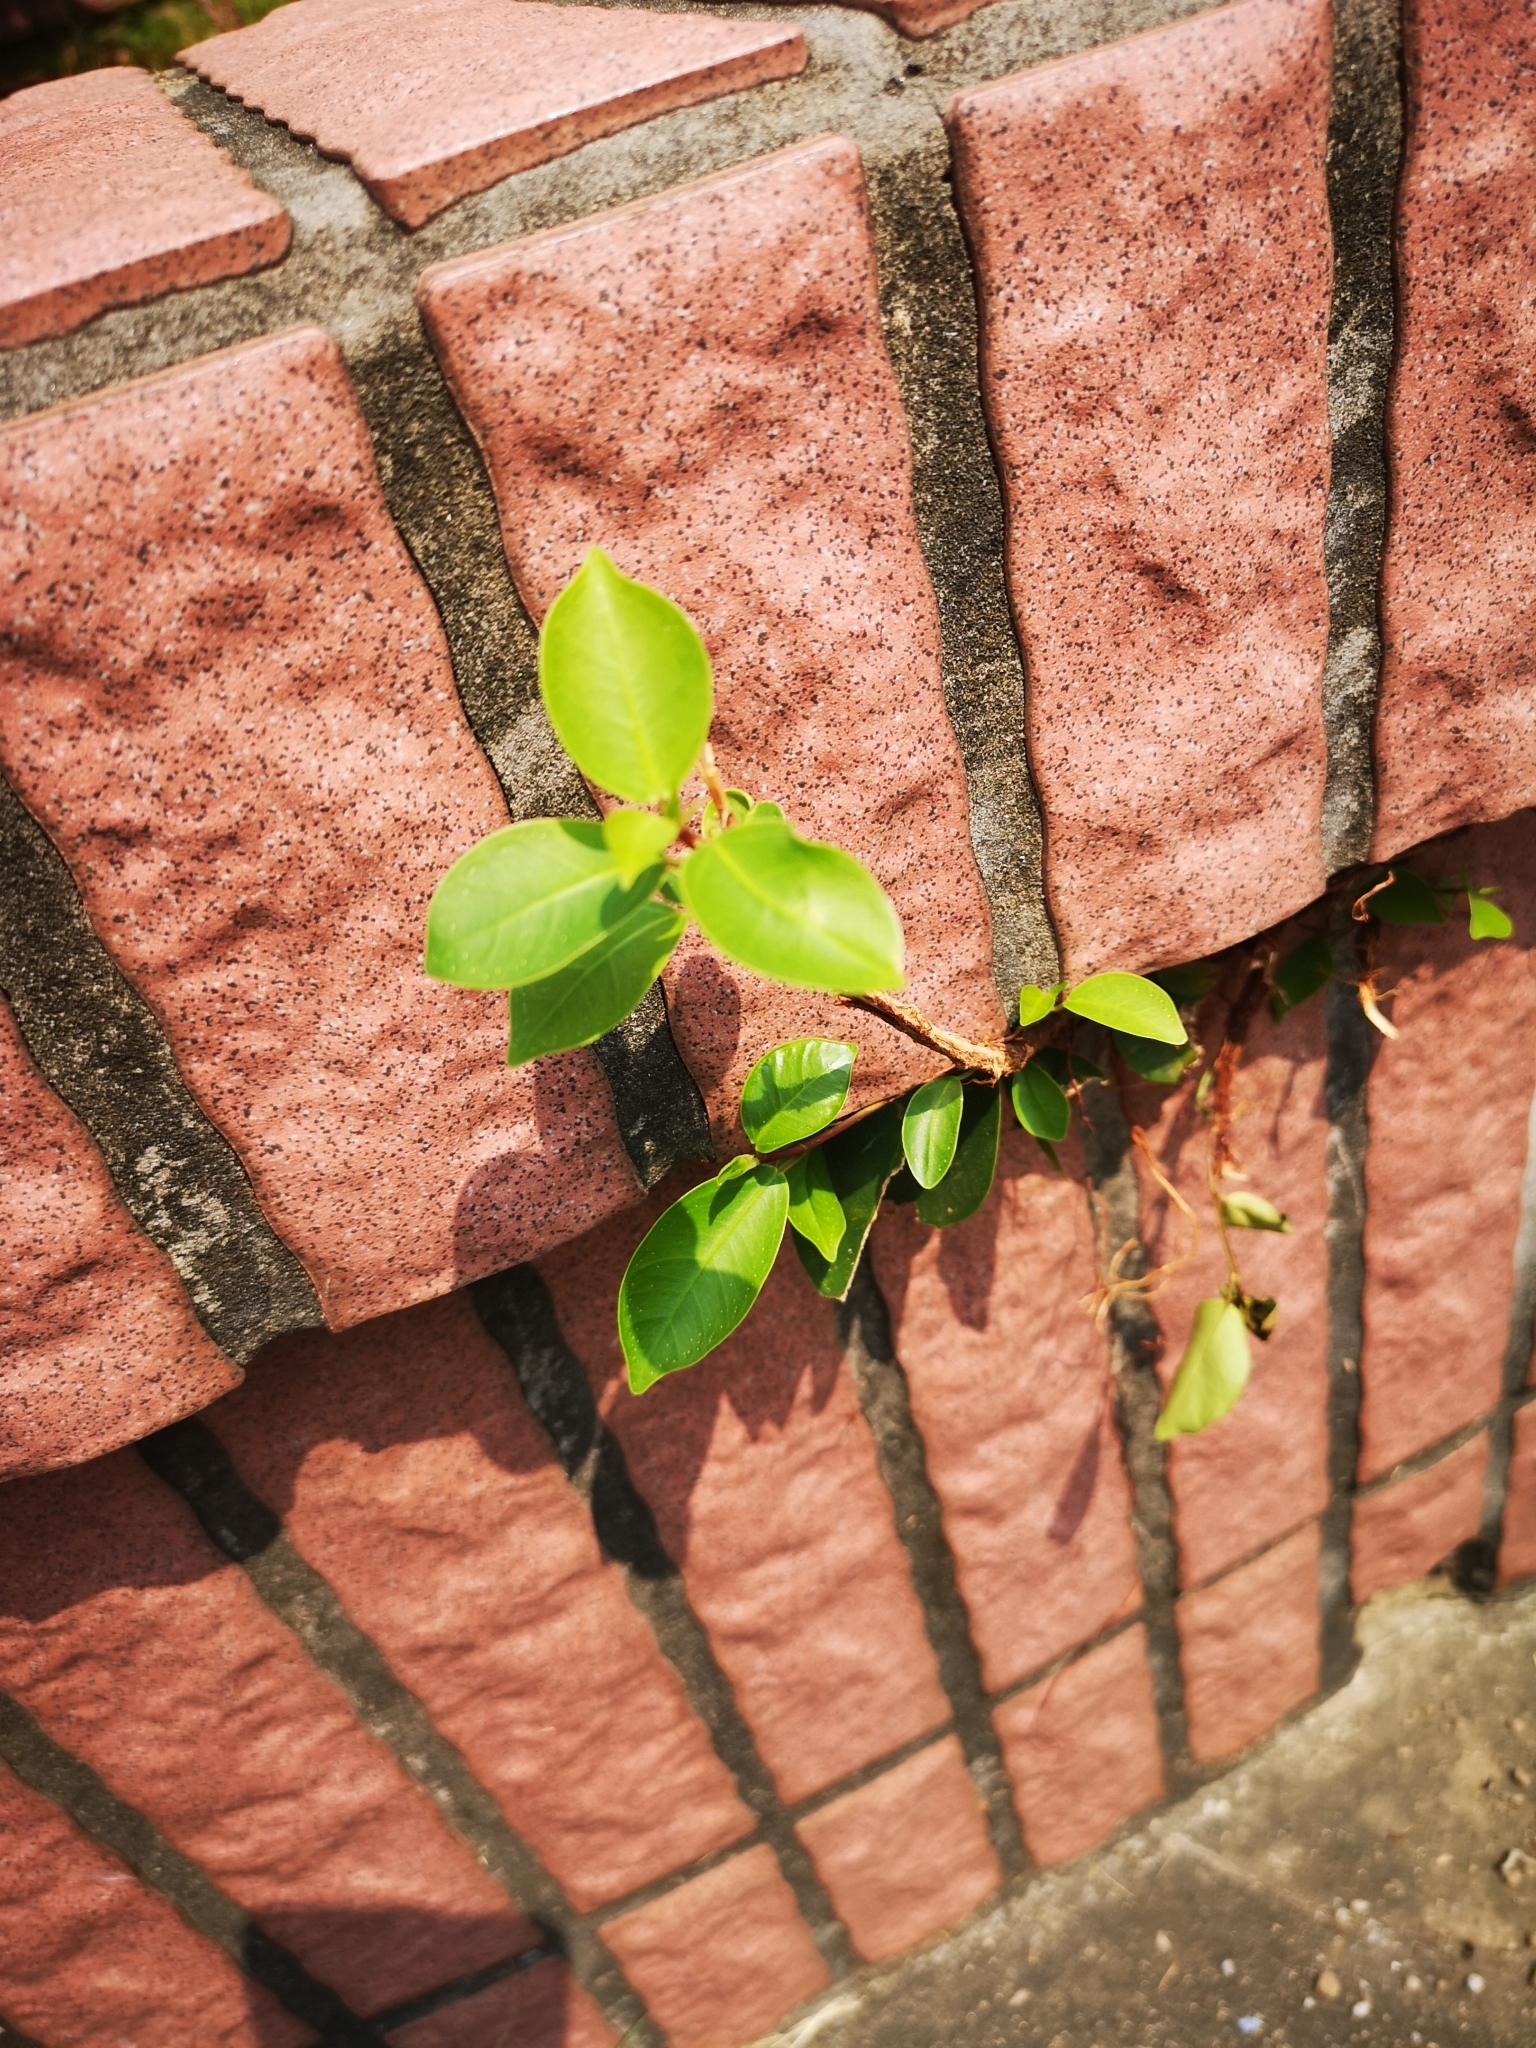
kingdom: Plantae
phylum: Tracheophyta
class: Magnoliopsida
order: Rosales
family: Moraceae
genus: Ficus
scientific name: Ficus microcarpa
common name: Chinese banyan
